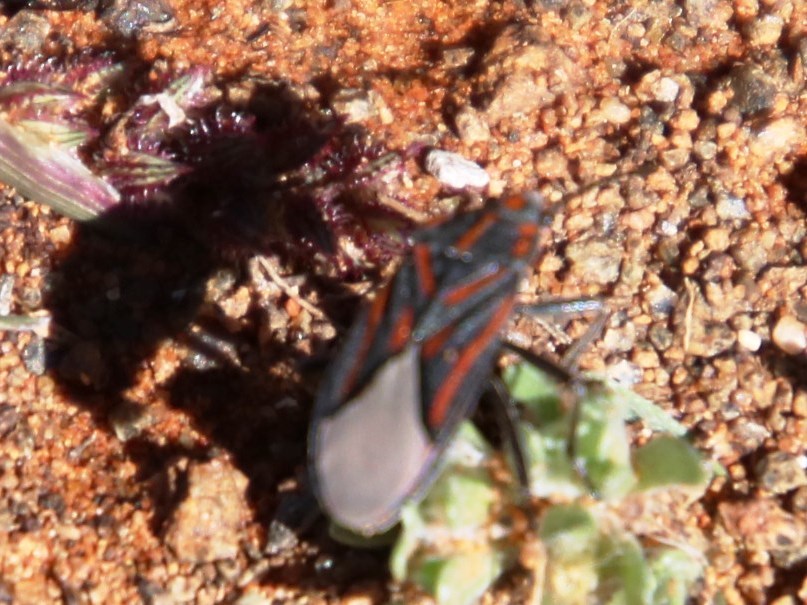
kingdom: Animalia
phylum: Arthropoda
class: Insecta
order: Hemiptera
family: Lygaeidae
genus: Spilostethus
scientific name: Spilostethus trilineatus
